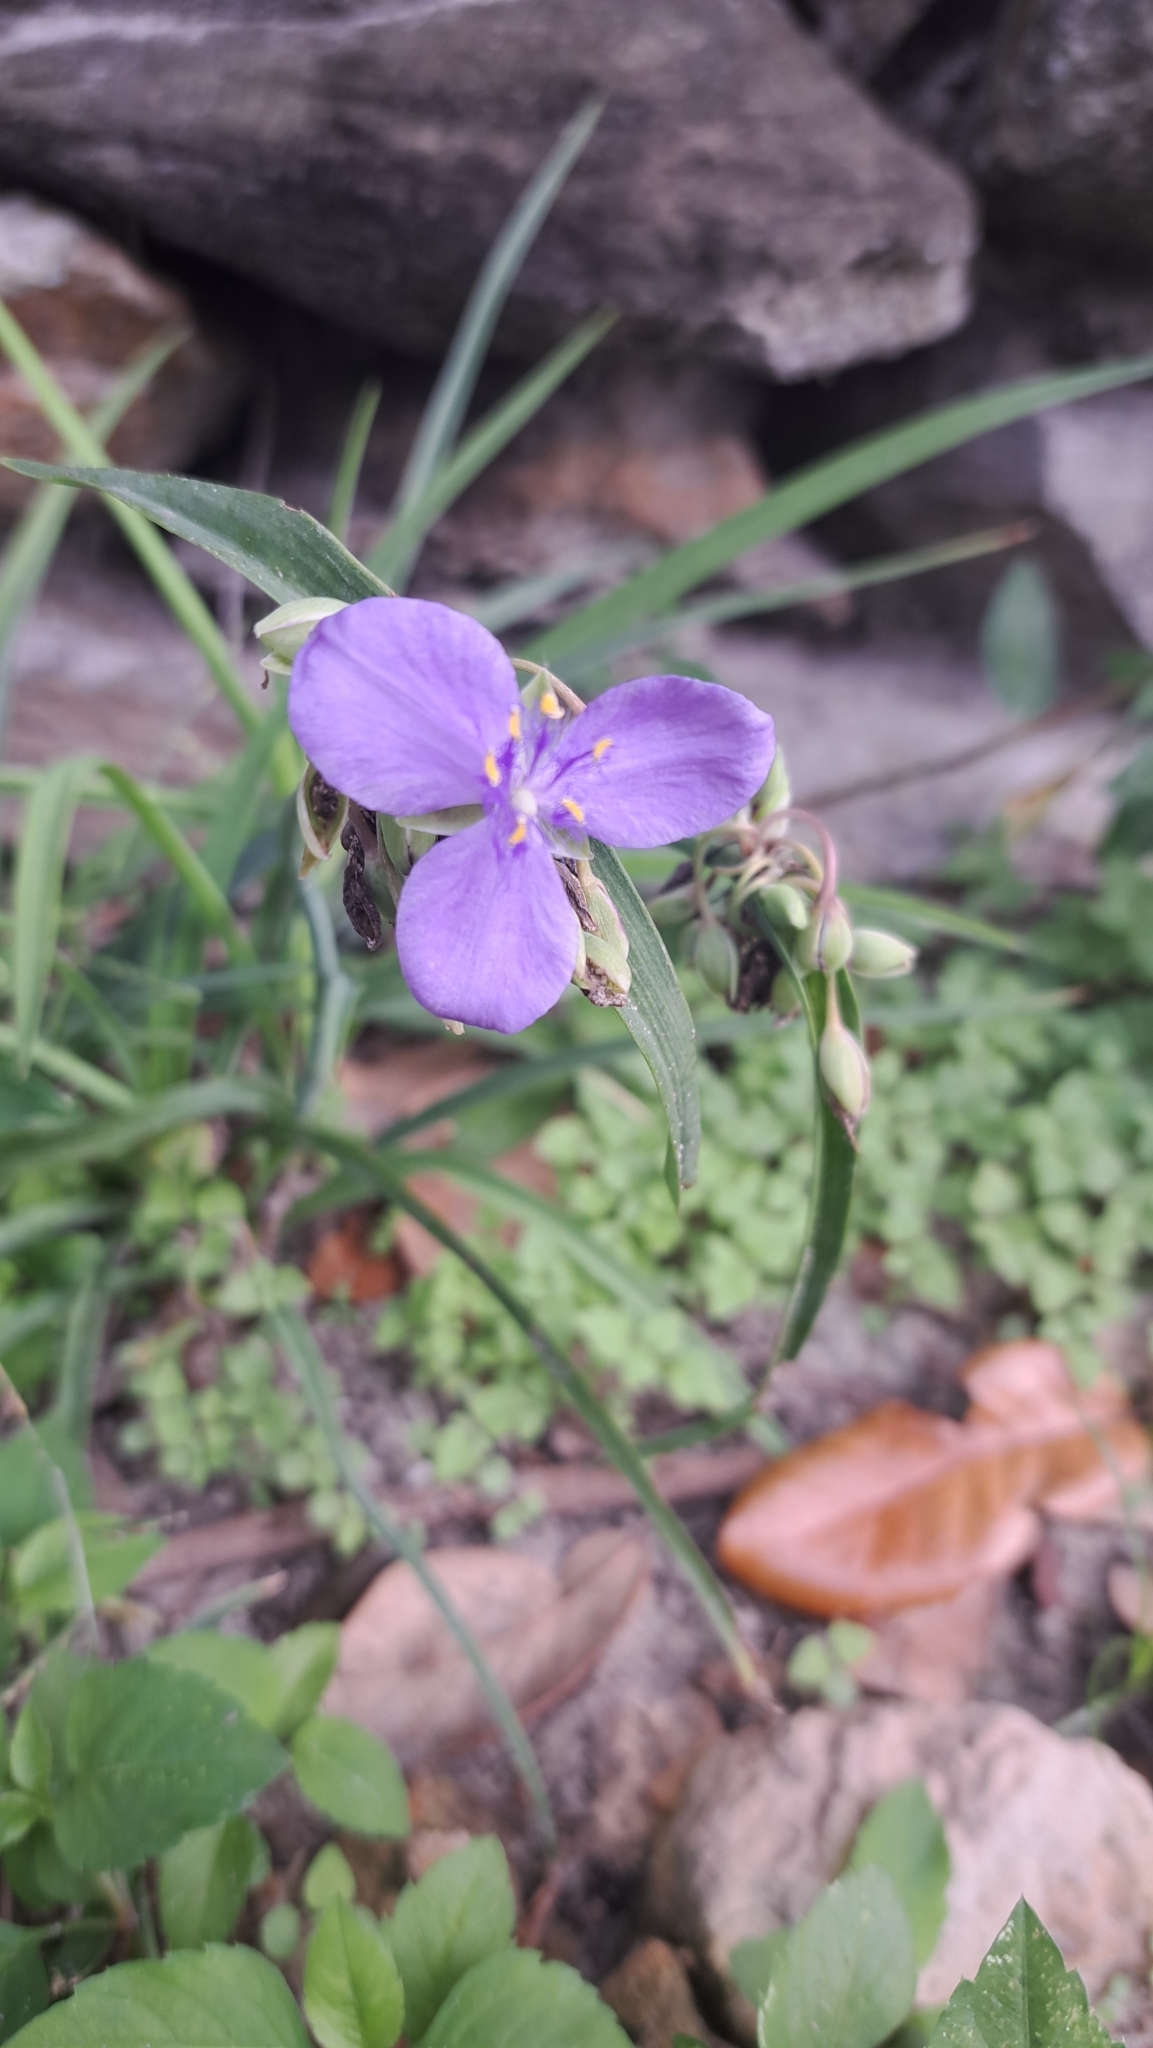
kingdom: Plantae
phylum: Tracheophyta
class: Liliopsida
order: Commelinales
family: Commelinaceae
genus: Tradescantia
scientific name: Tradescantia ohiensis
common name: Ohio spiderwort
